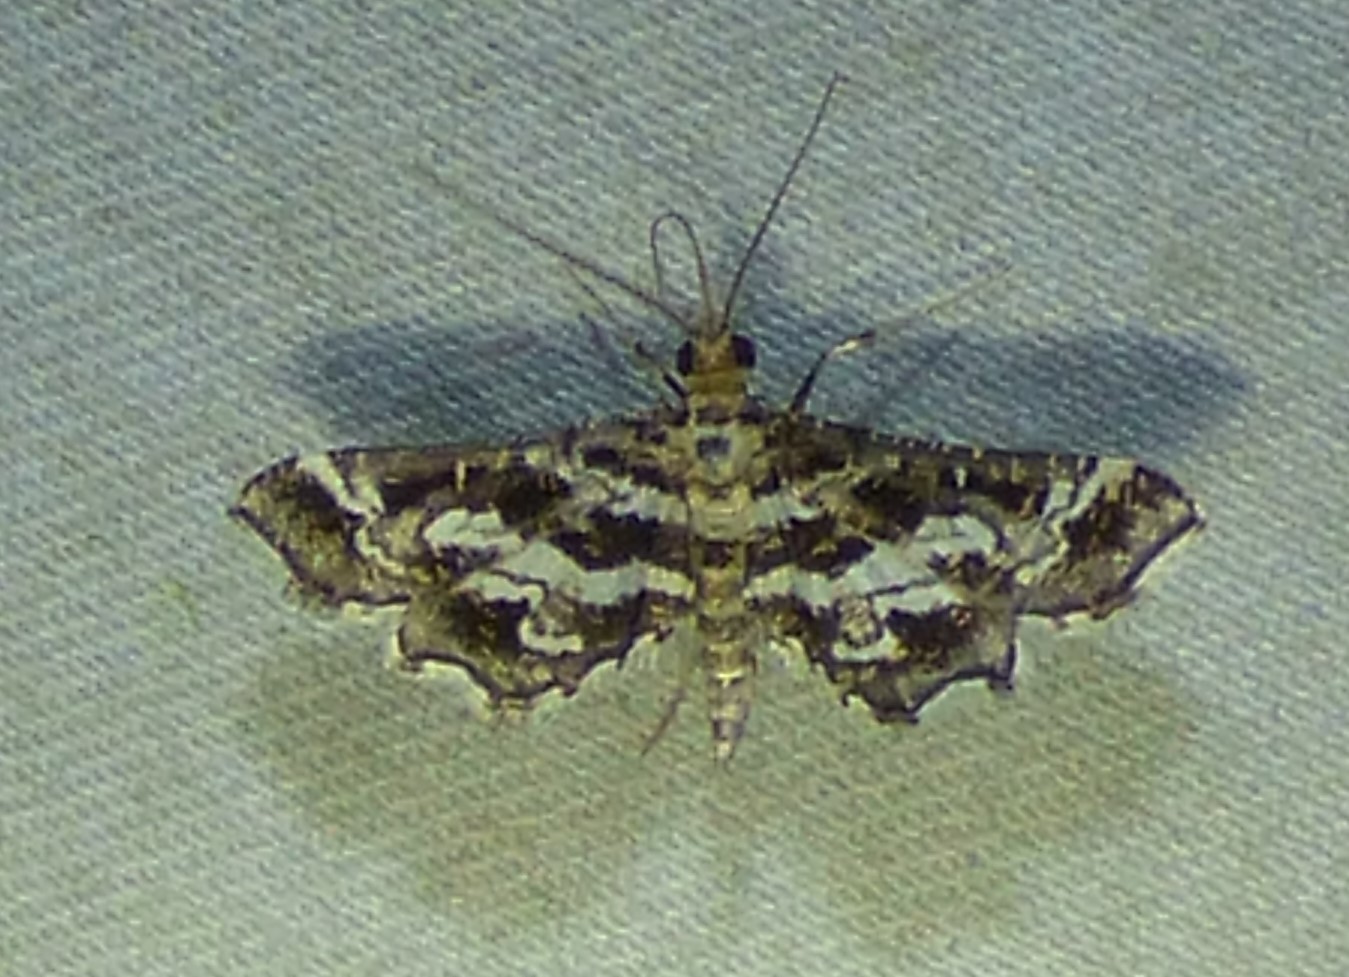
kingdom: Animalia
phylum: Arthropoda
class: Insecta
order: Lepidoptera
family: Crambidae
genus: Diasemiopsis
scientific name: Diasemiopsis ramburialis
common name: Vagrant china-mark
